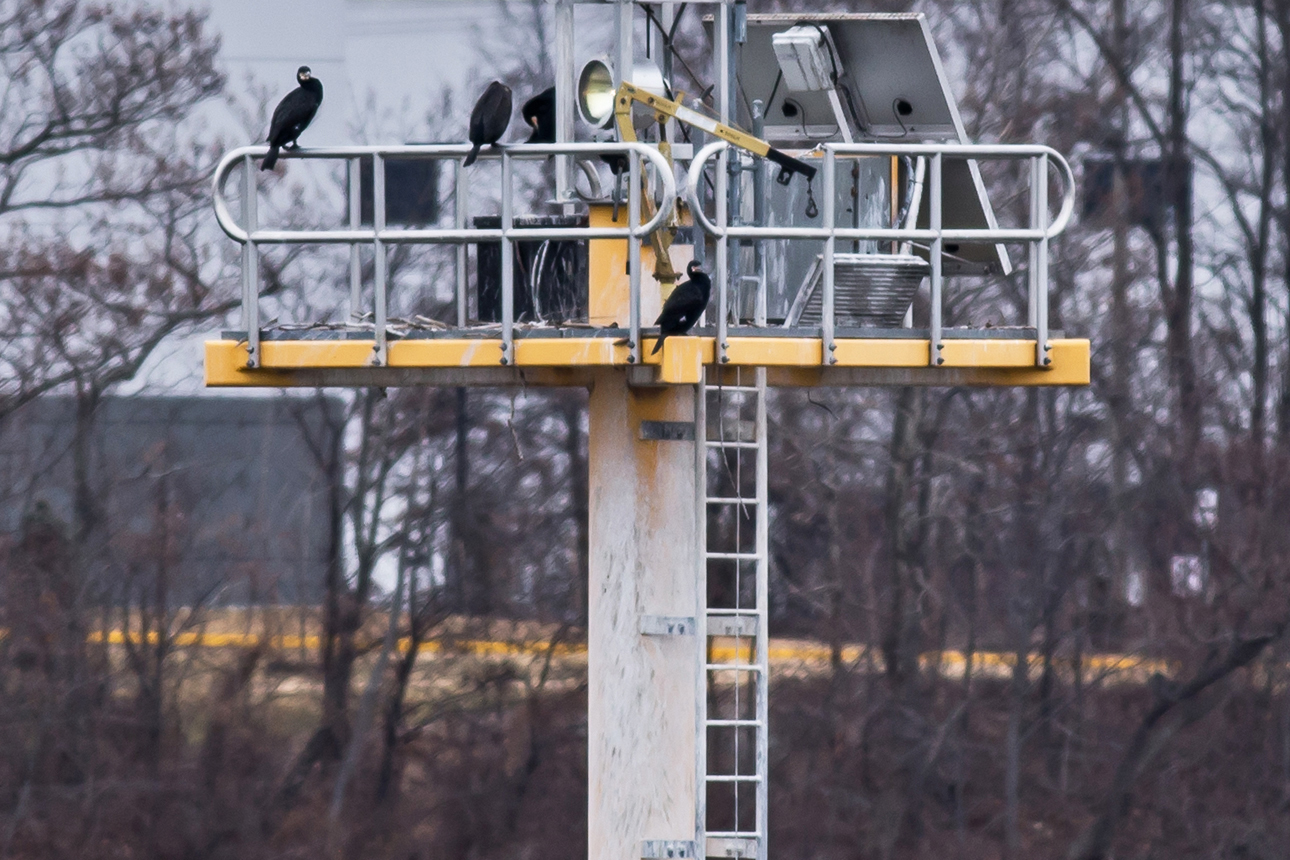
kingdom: Animalia
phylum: Chordata
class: Aves
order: Suliformes
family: Phalacrocoracidae
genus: Phalacrocorax
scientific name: Phalacrocorax carbo
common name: Great cormorant
